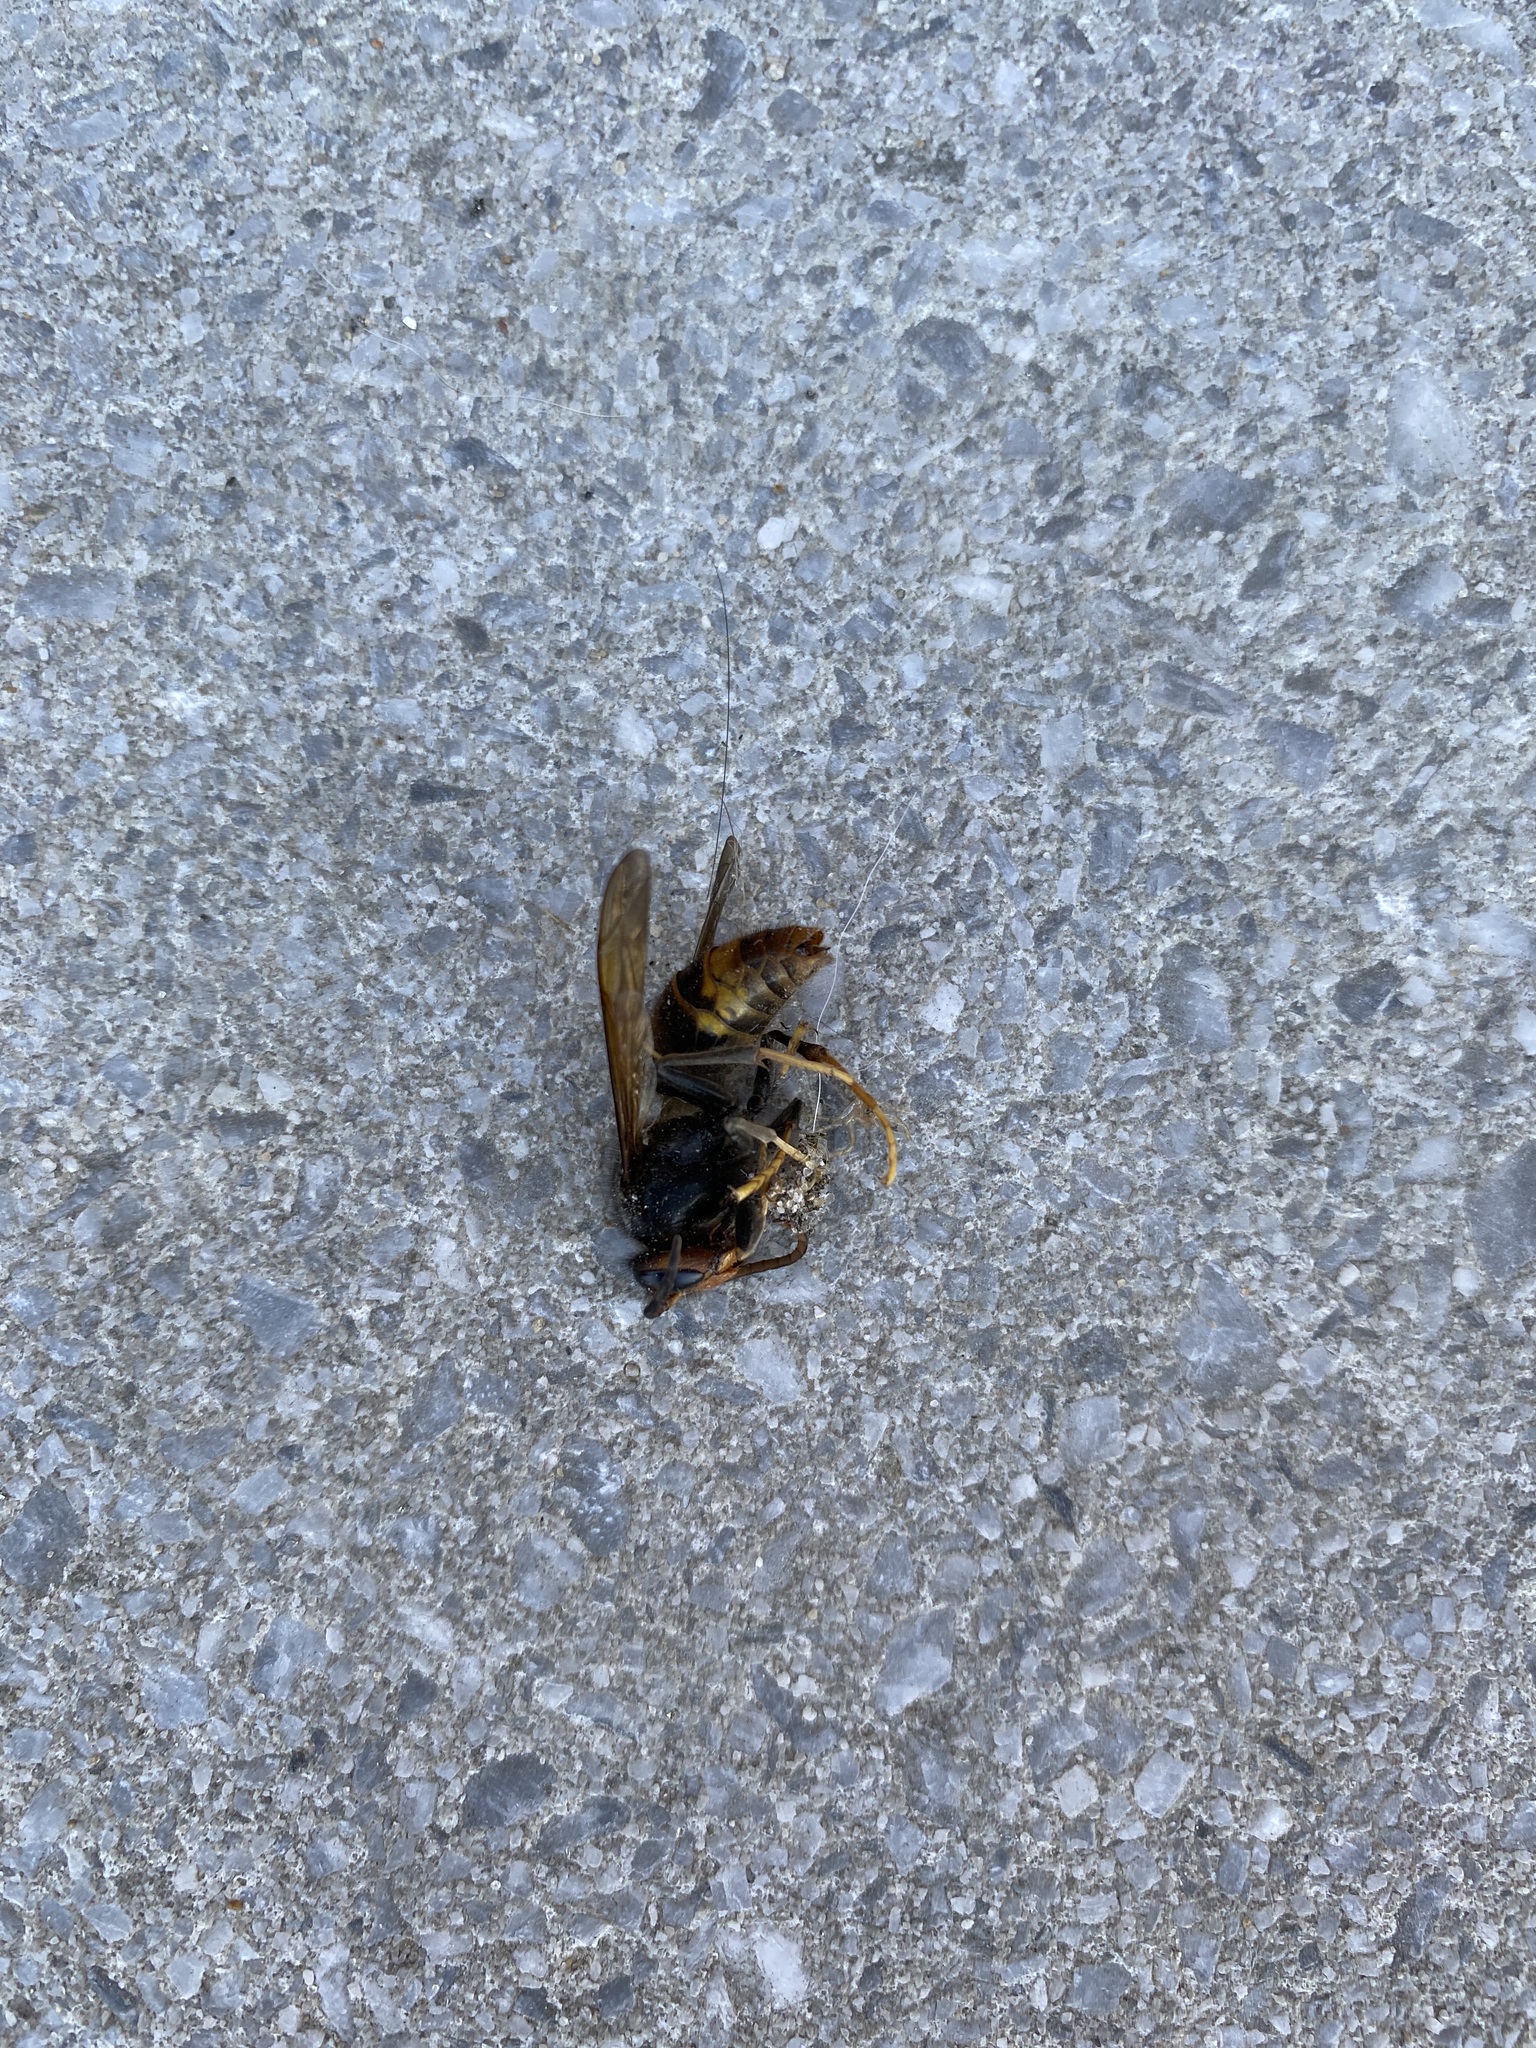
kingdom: Animalia
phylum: Arthropoda
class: Insecta
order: Hymenoptera
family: Vespidae
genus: Vespa
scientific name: Vespa velutina
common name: Asian hornet
